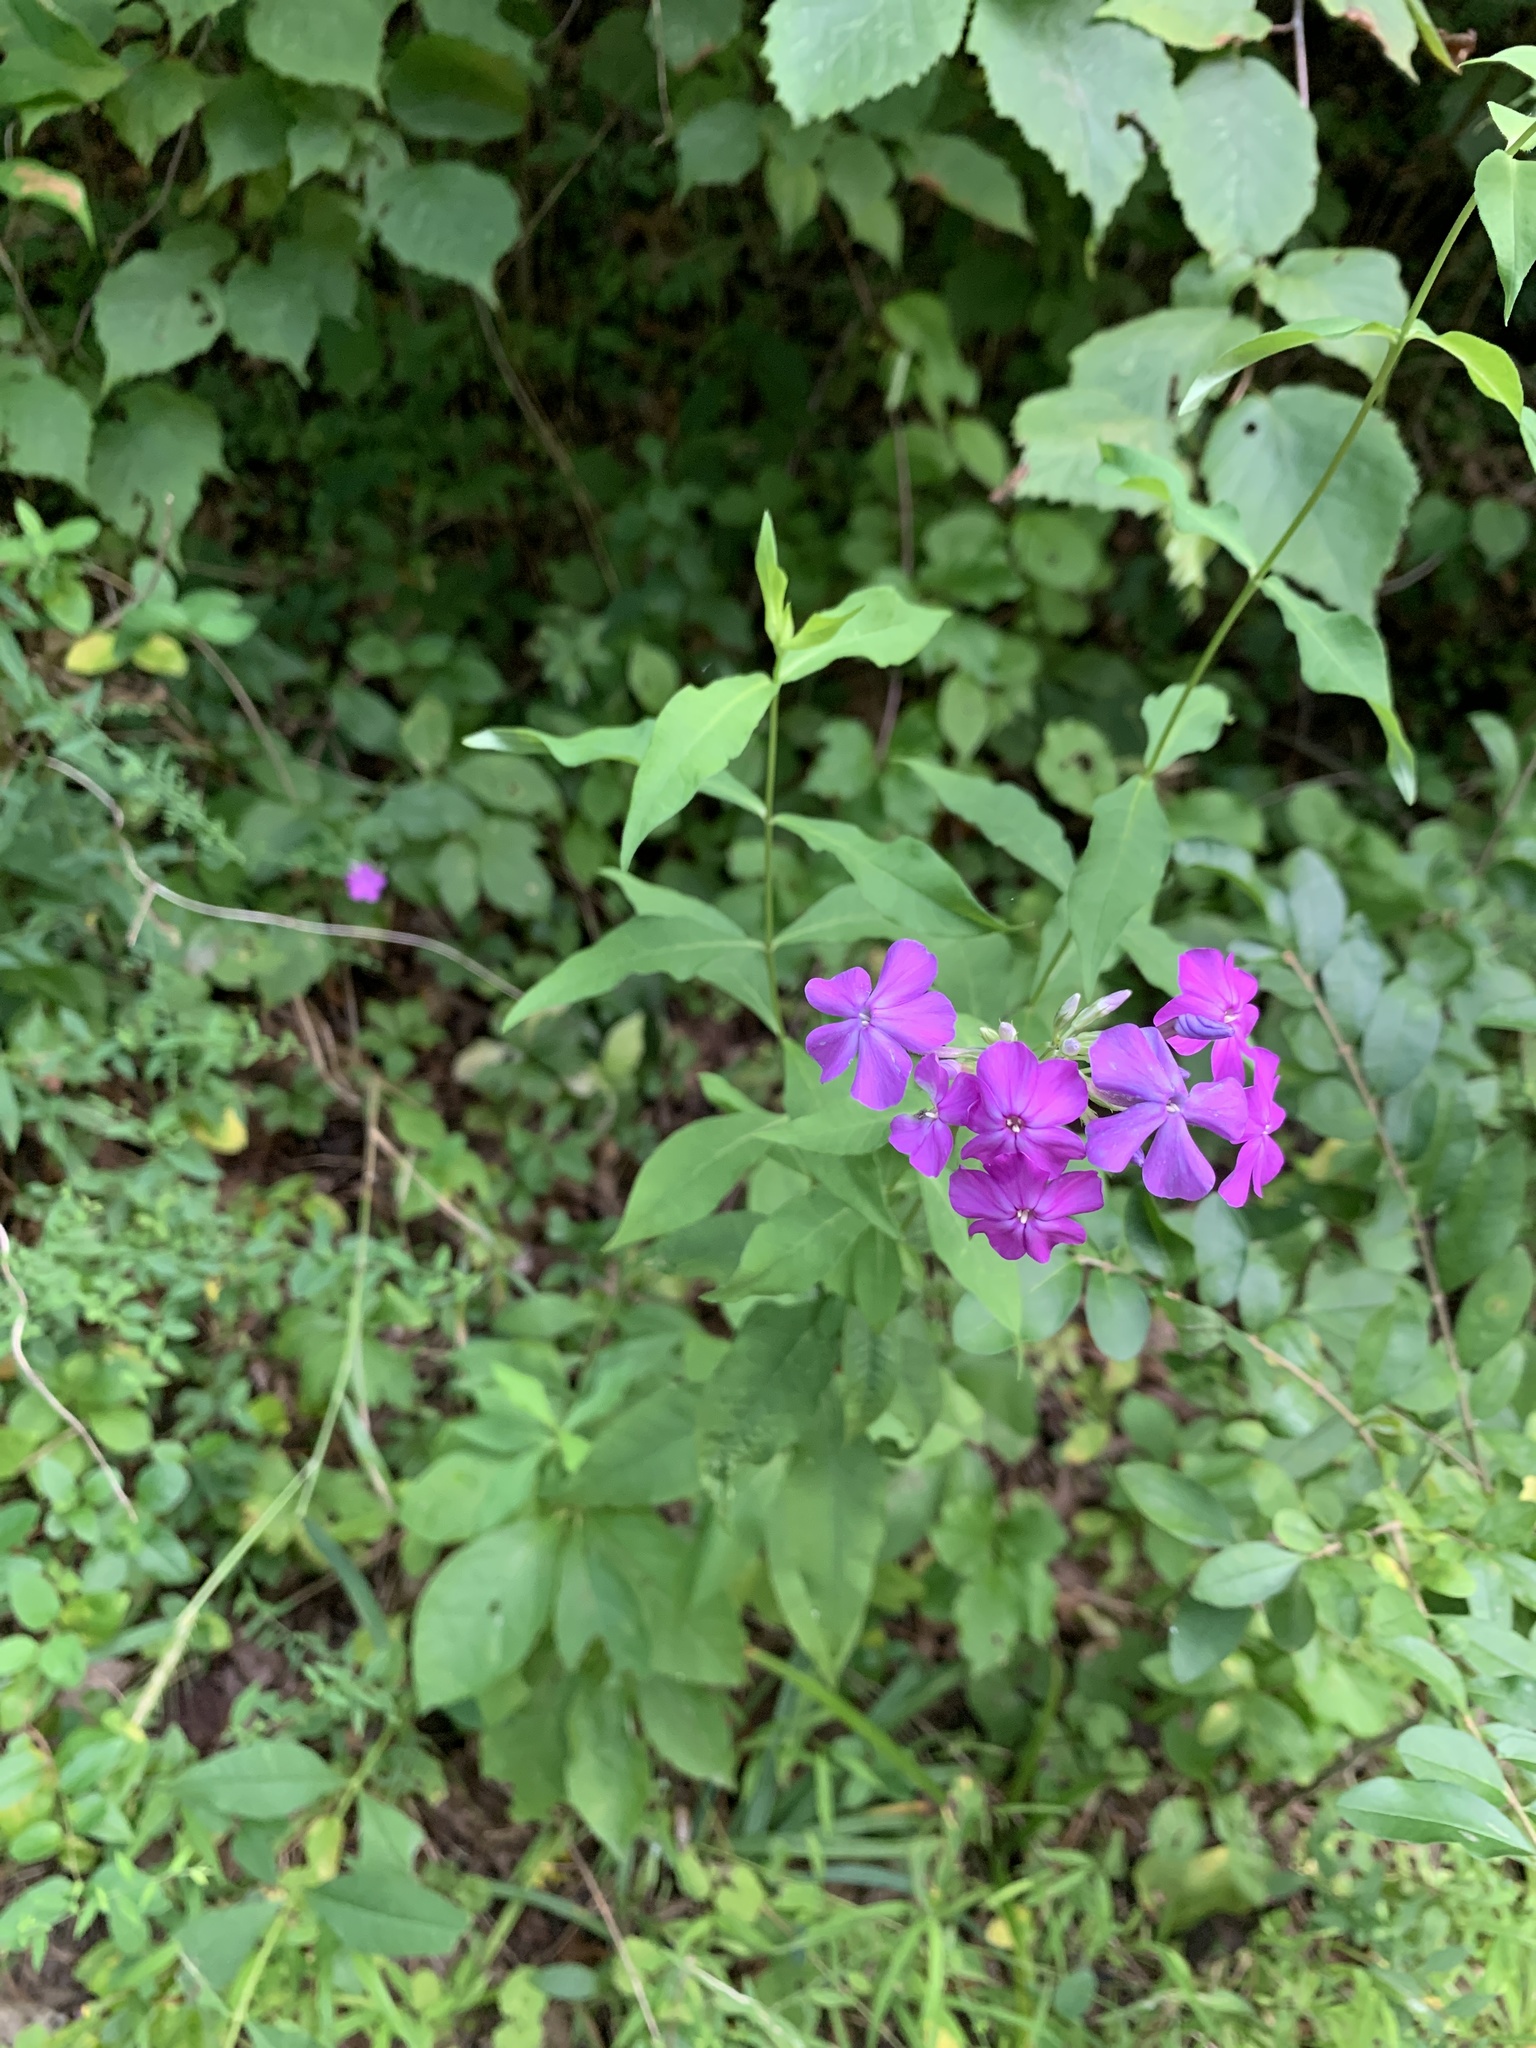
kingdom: Plantae
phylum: Tracheophyta
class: Magnoliopsida
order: Ericales
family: Polemoniaceae
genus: Phlox
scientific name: Phlox paniculata
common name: Fall phlox
